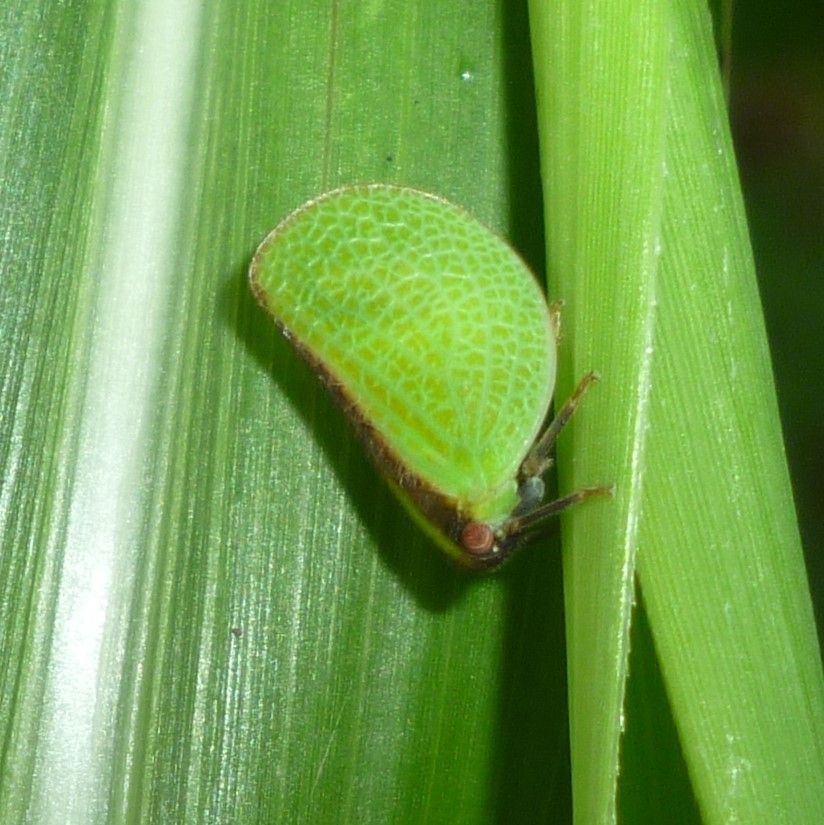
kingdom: Animalia
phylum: Arthropoda
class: Insecta
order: Hemiptera
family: Acanaloniidae
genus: Acanalonia
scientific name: Acanalonia bivittata
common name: Two-striped planthopper
